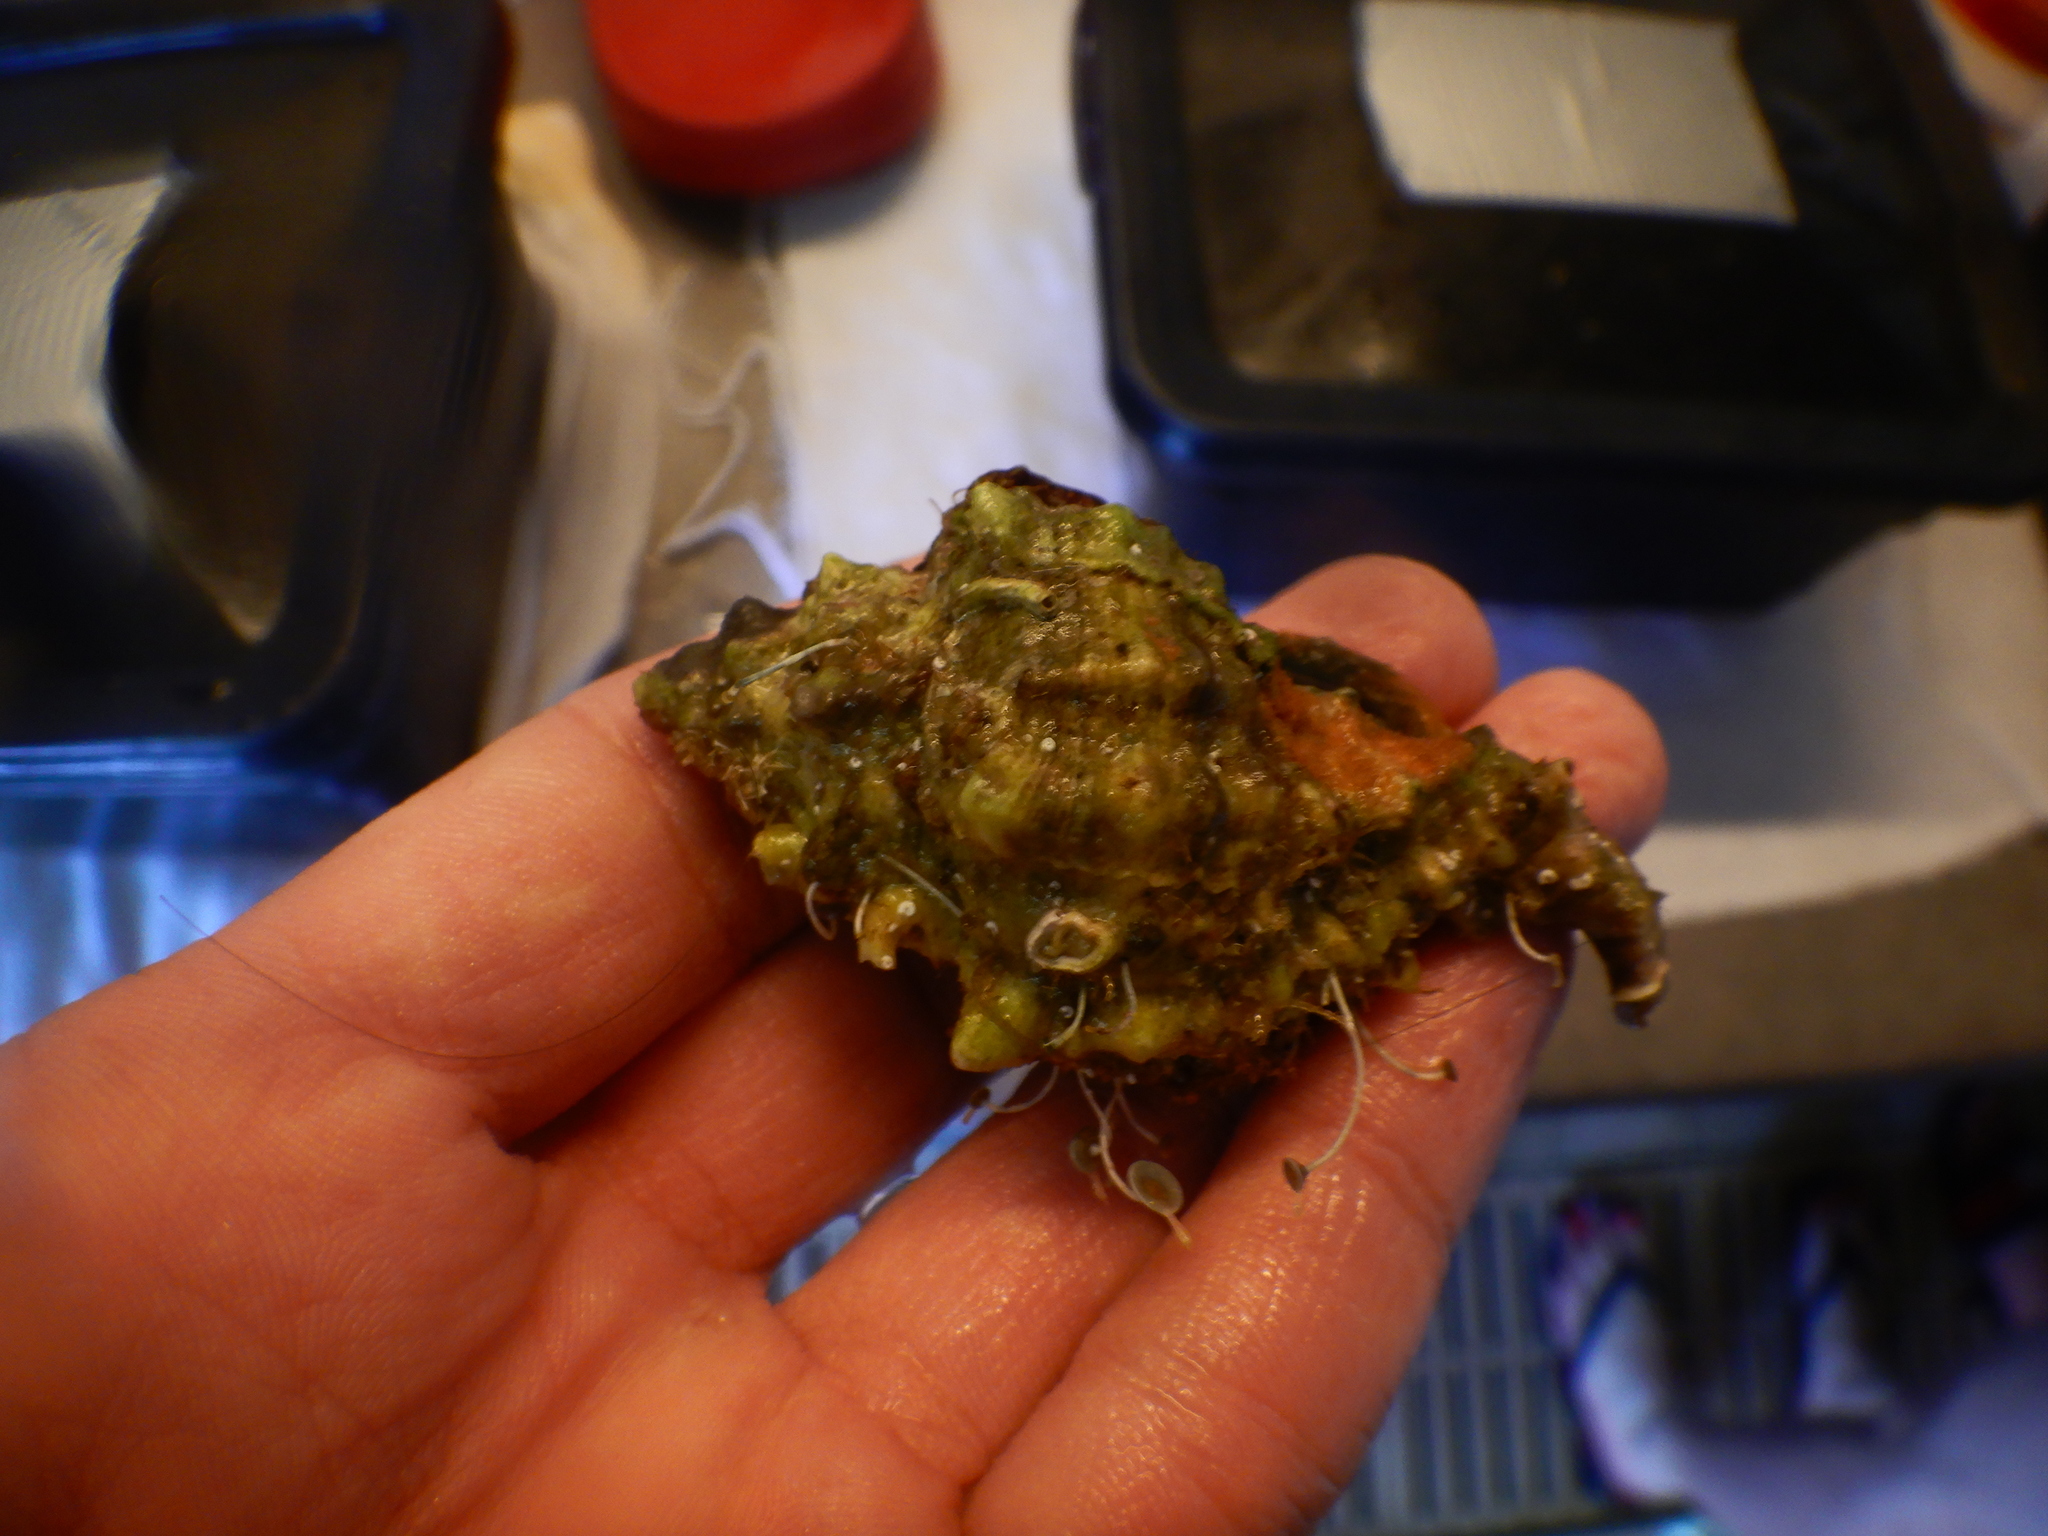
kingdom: Animalia
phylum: Mollusca
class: Gastropoda
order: Neogastropoda
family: Muricidae
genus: Hexaplex
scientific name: Hexaplex trunculus
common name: Banded dye-murex
